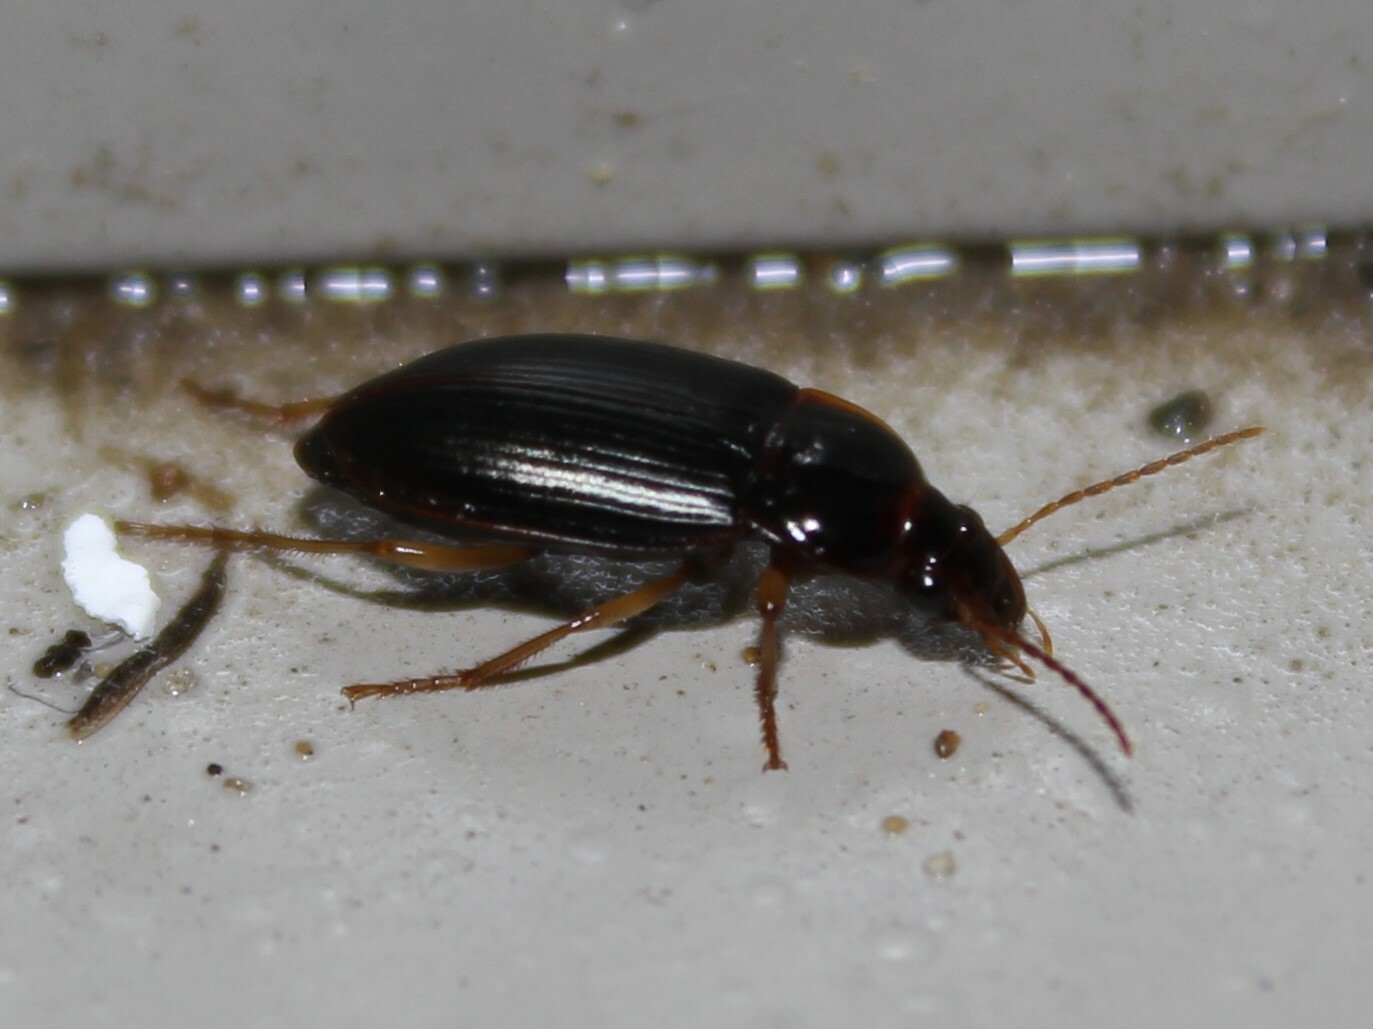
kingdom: Animalia
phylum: Arthropoda
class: Insecta
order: Coleoptera
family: Carabidae
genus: Notiobia
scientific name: Notiobia terminata
